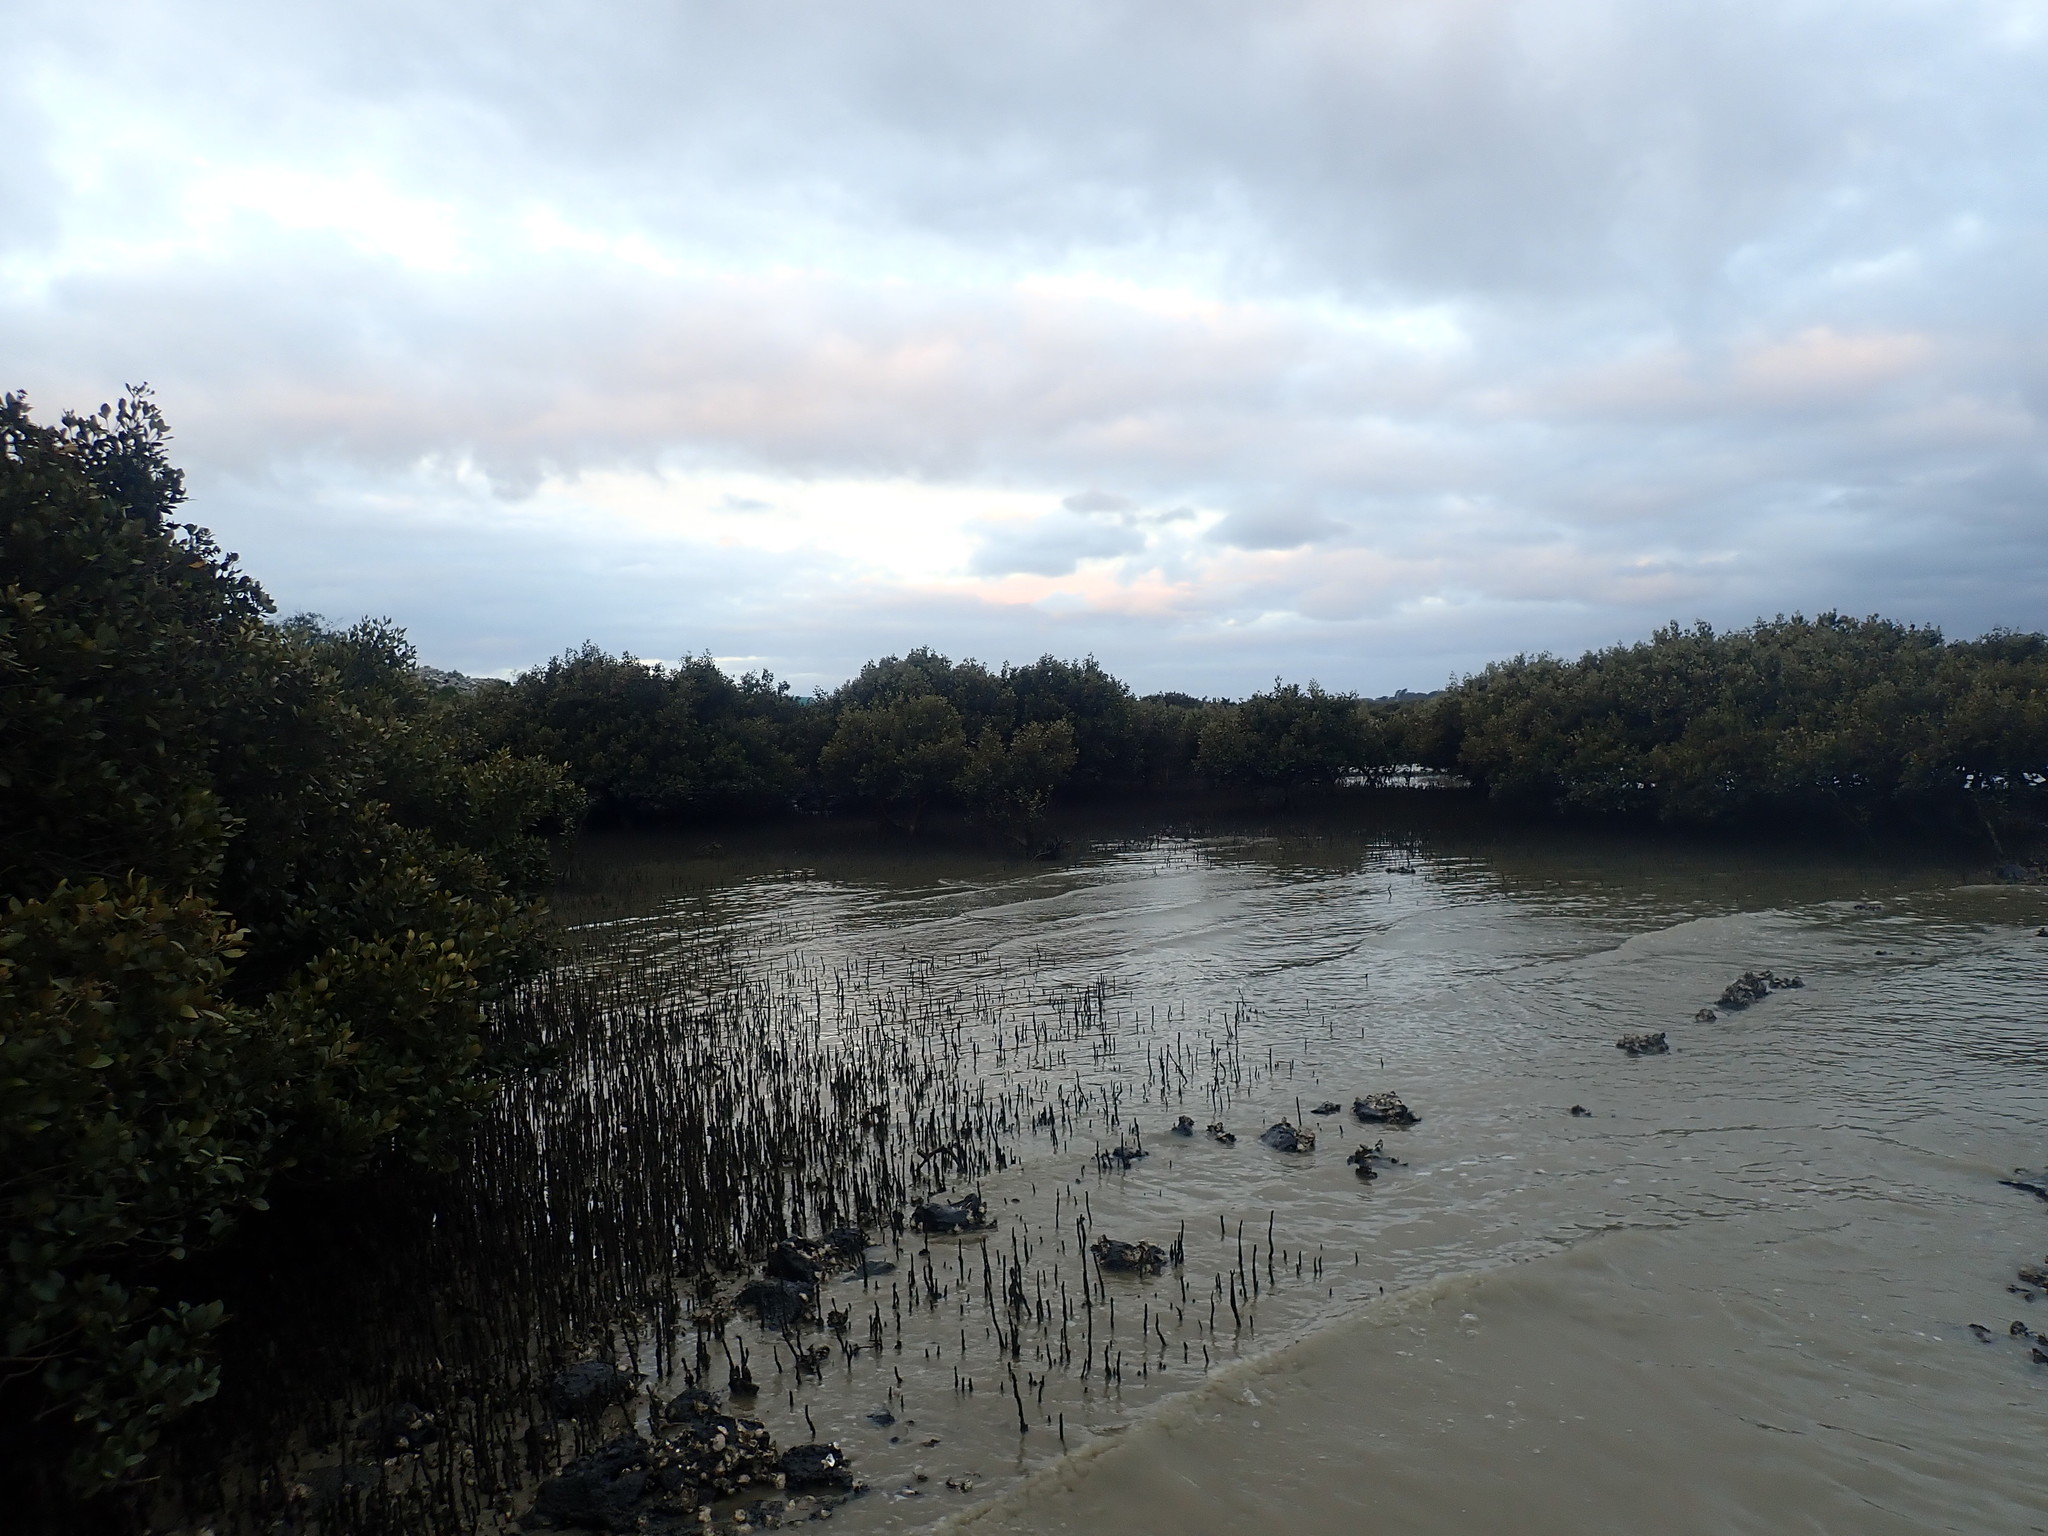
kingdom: Plantae
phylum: Tracheophyta
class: Magnoliopsida
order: Lamiales
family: Acanthaceae
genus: Avicennia
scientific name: Avicennia marina
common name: Gray mangrove
